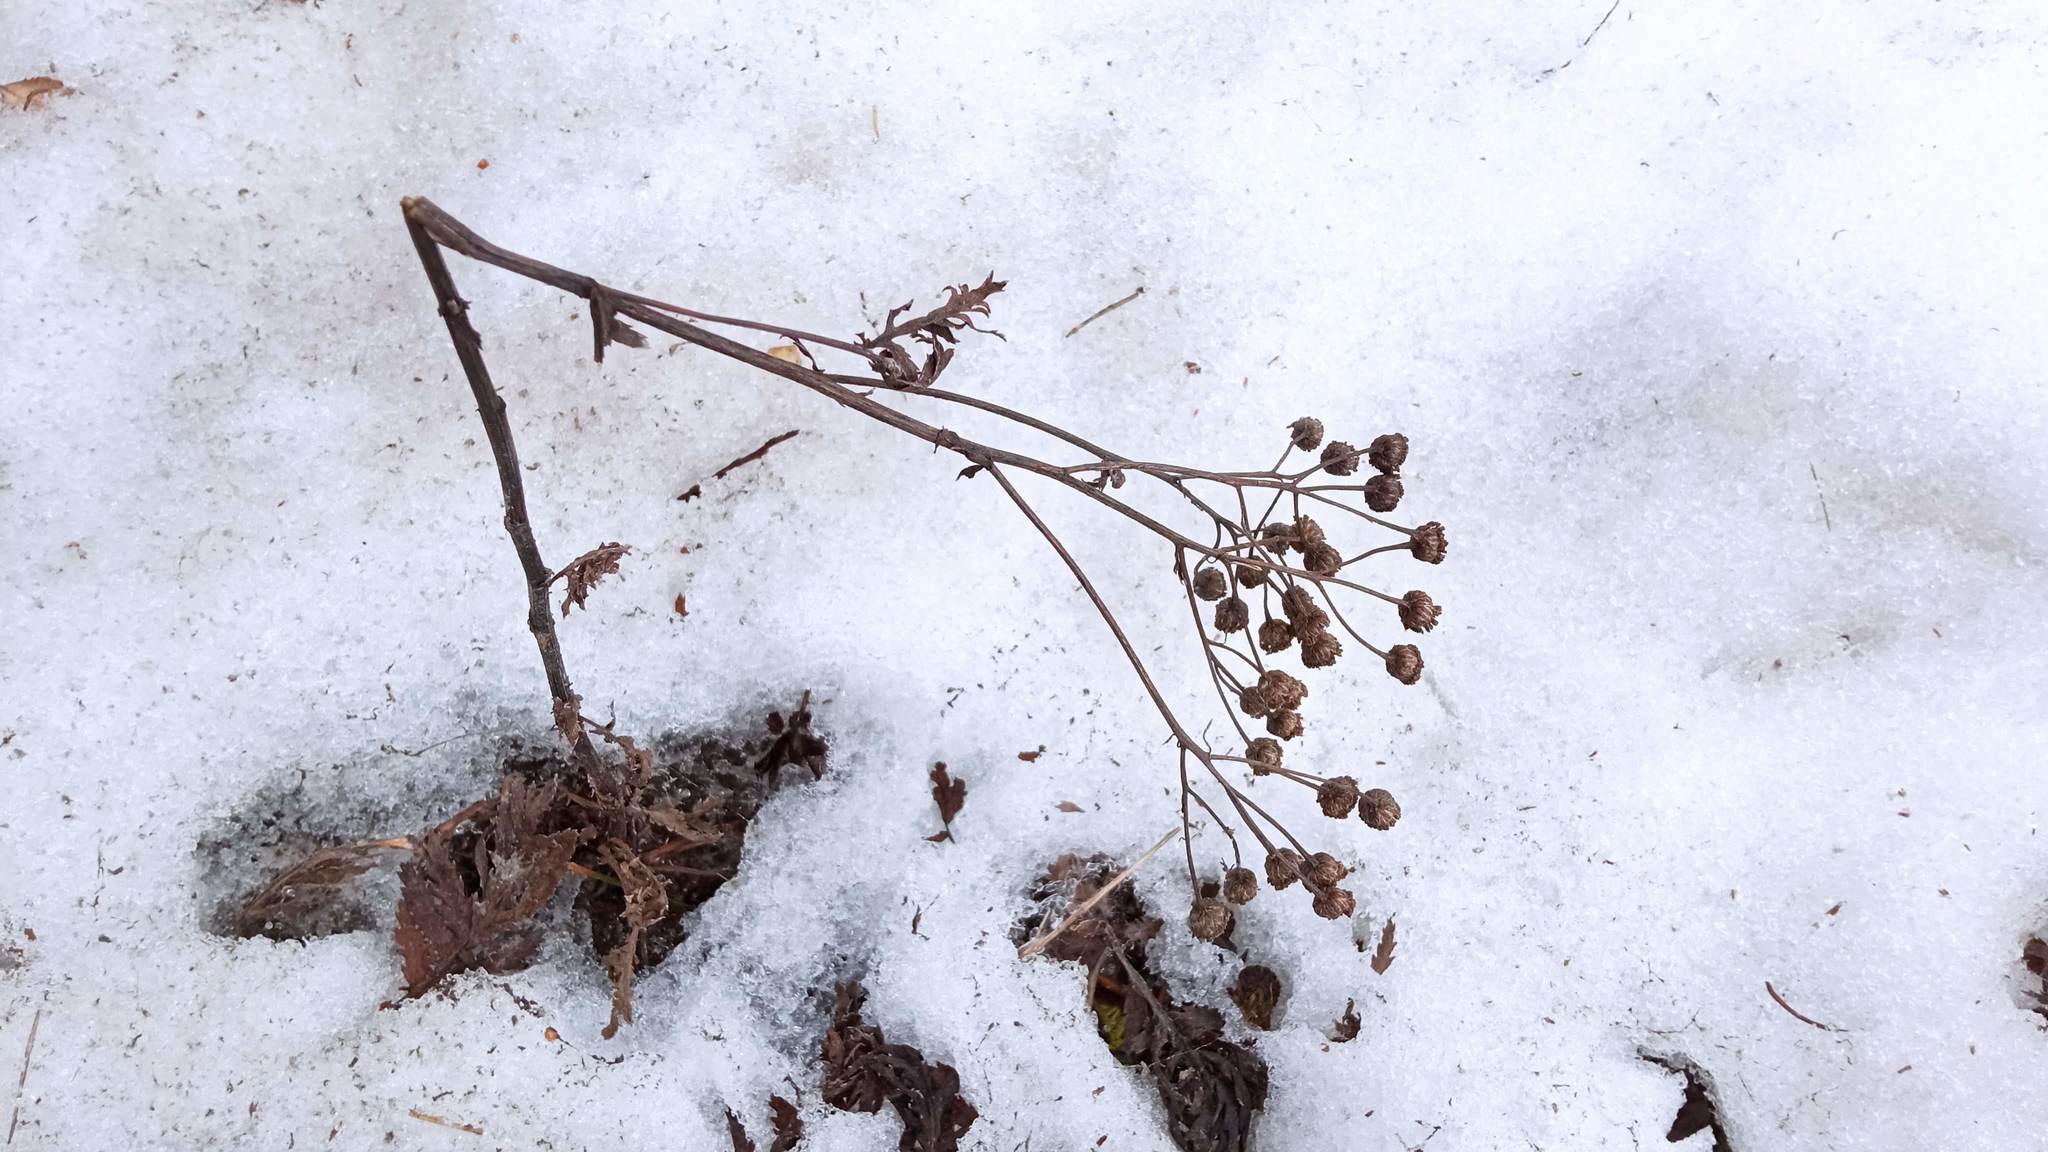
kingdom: Plantae
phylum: Tracheophyta
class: Magnoliopsida
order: Asterales
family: Asteraceae
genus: Tanacetum
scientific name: Tanacetum vulgare
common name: Common tansy
